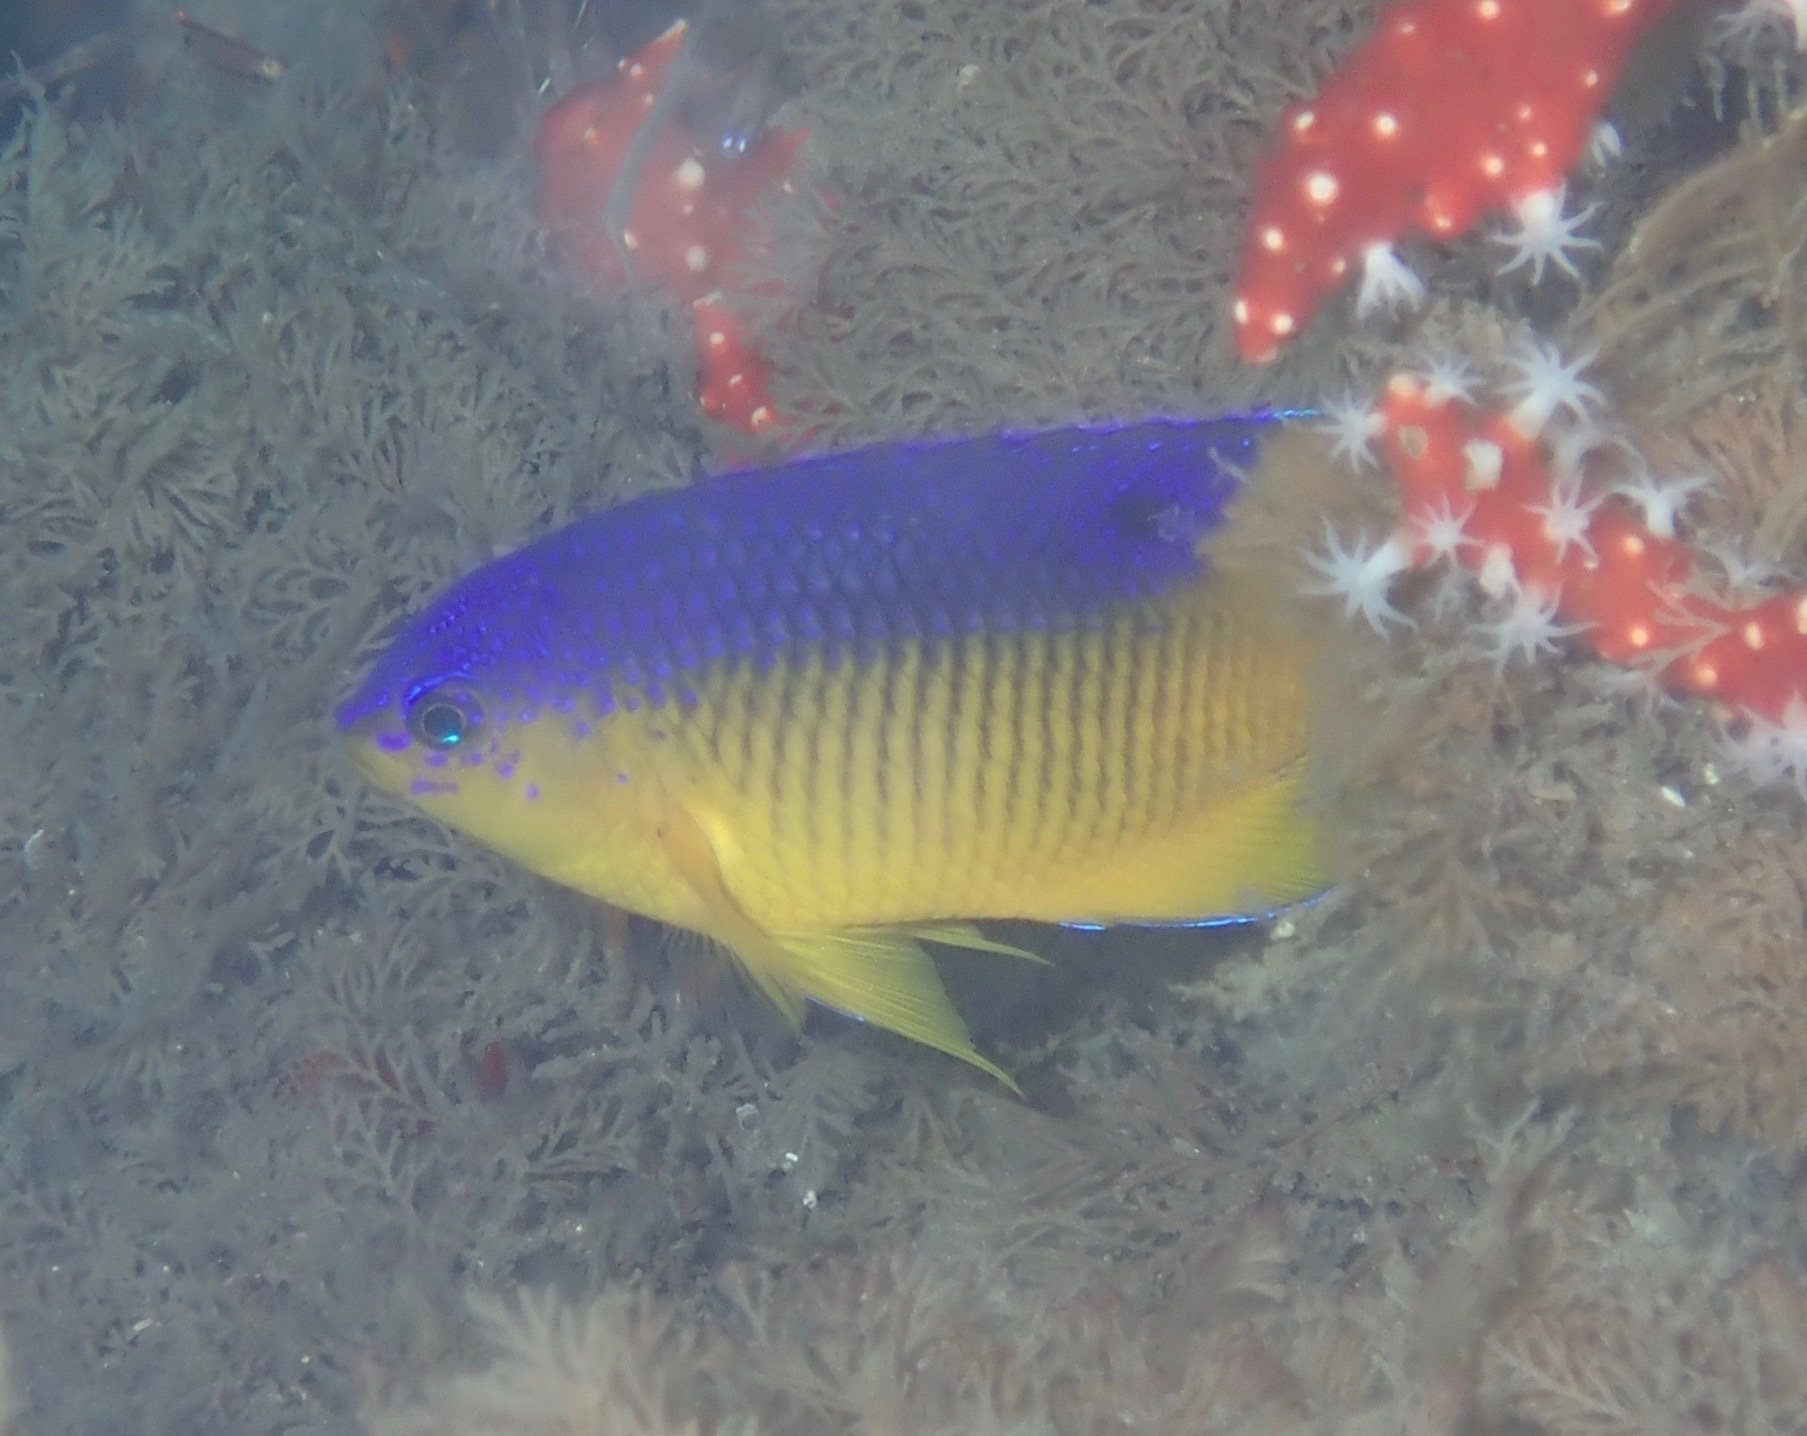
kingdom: Animalia
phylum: Chordata
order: Perciformes
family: Pomacentridae
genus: Stegastes
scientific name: Stegastes xanthurus
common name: Cocoa damselfish
